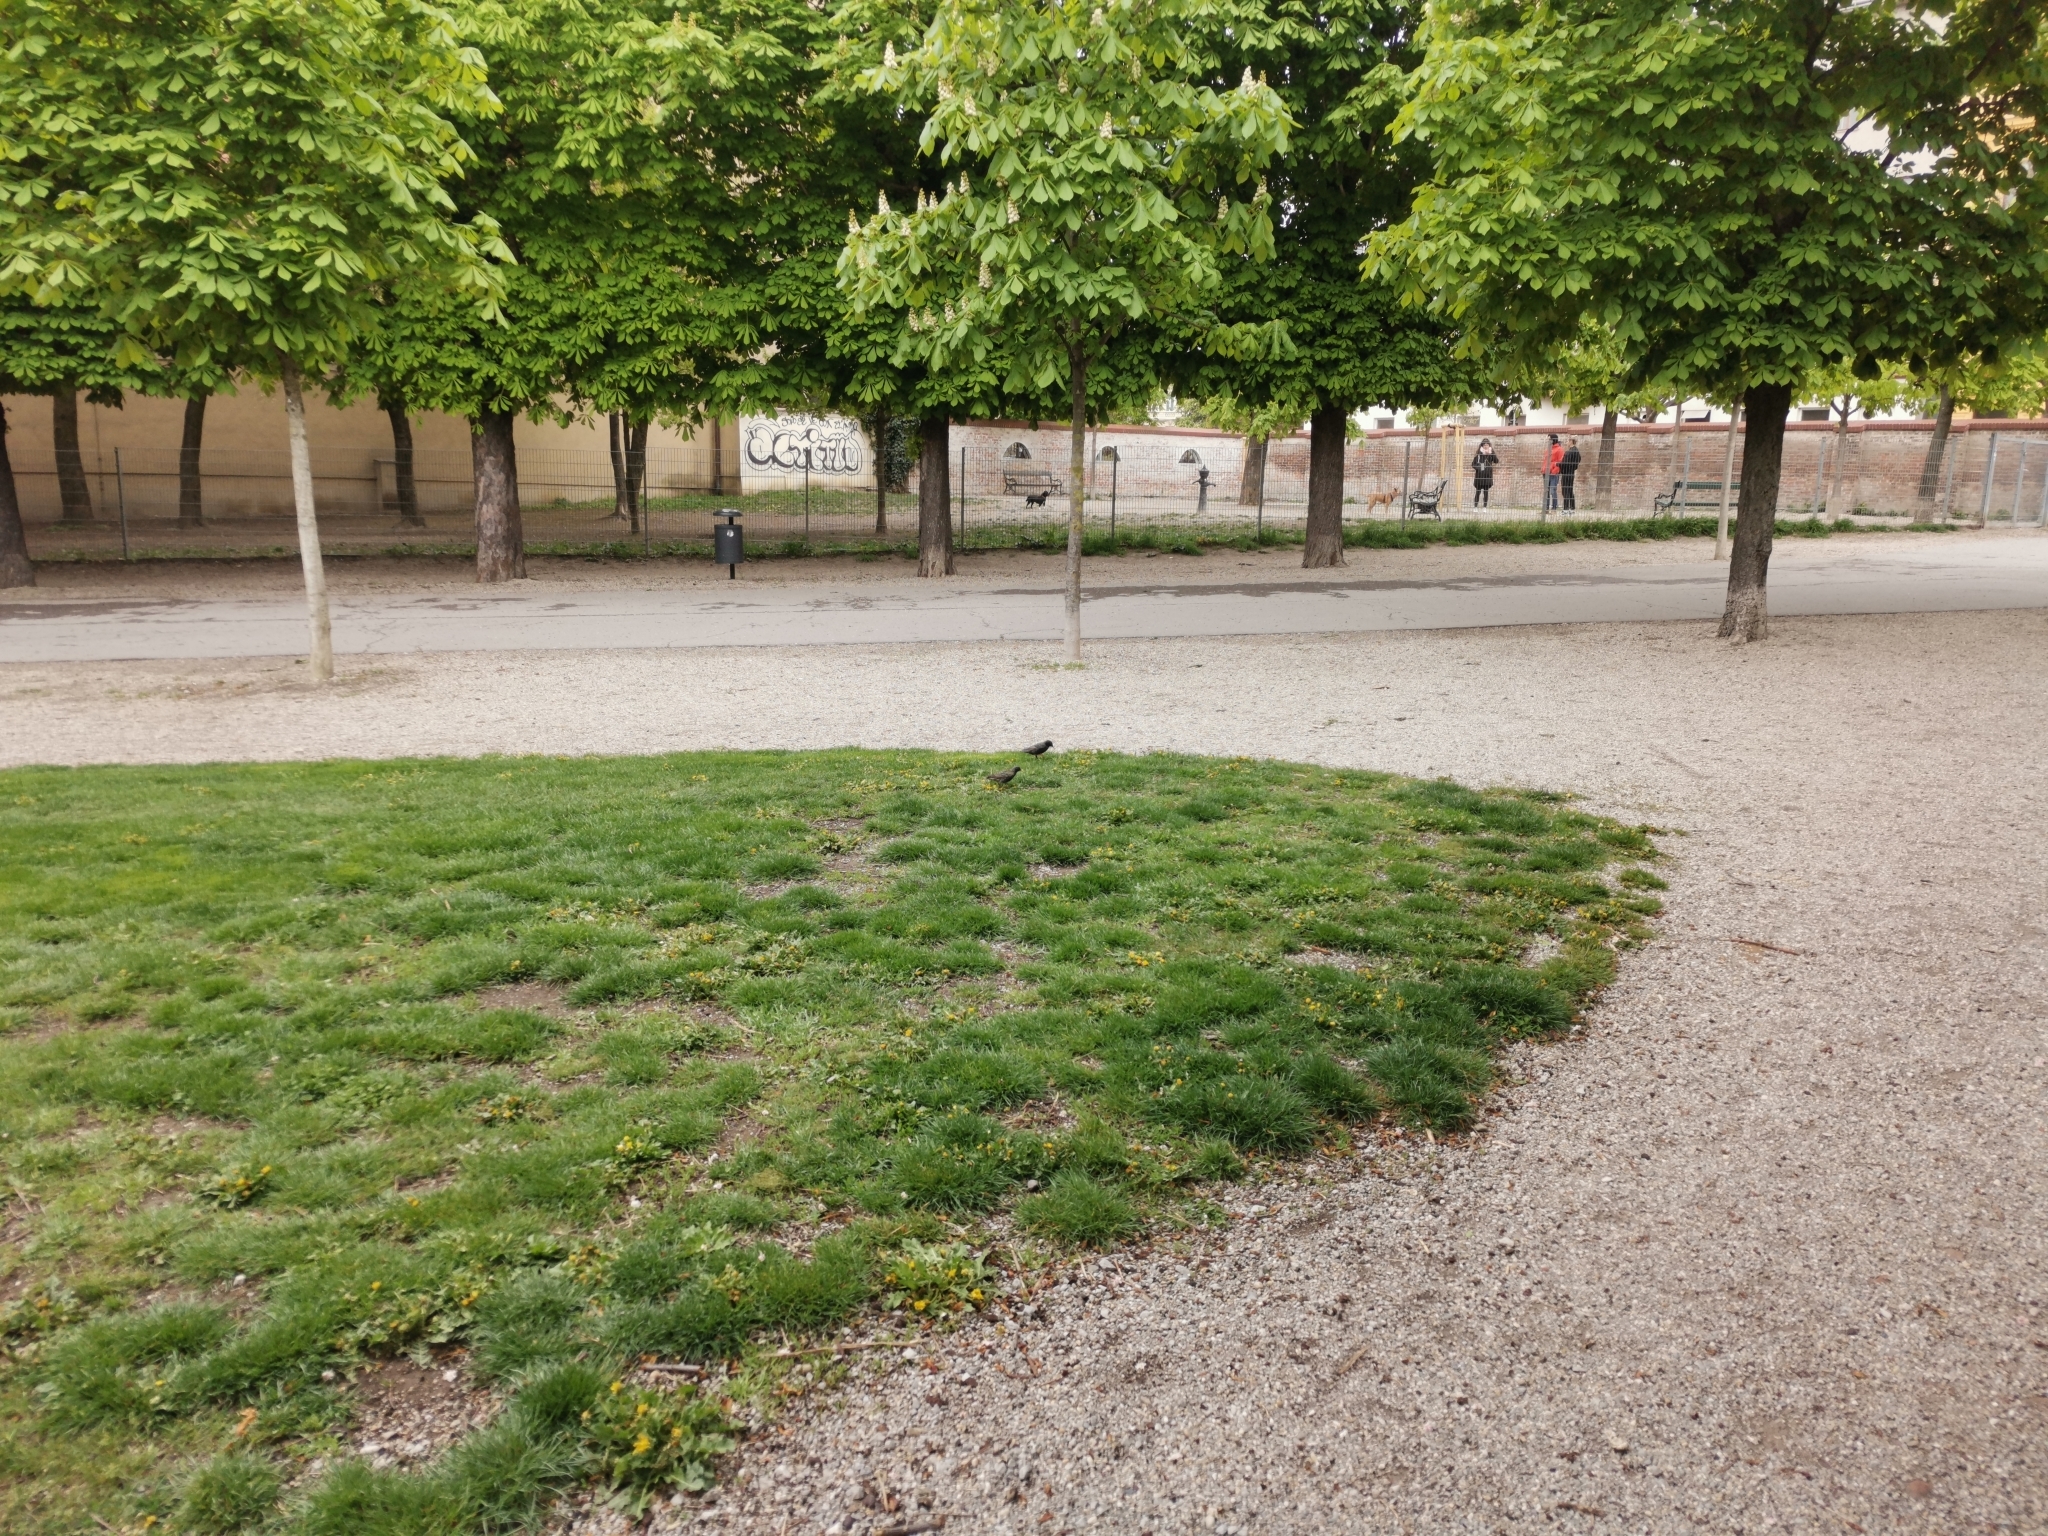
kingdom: Animalia
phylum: Chordata
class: Aves
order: Passeriformes
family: Sturnidae
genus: Sturnus
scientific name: Sturnus vulgaris
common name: Common starling
